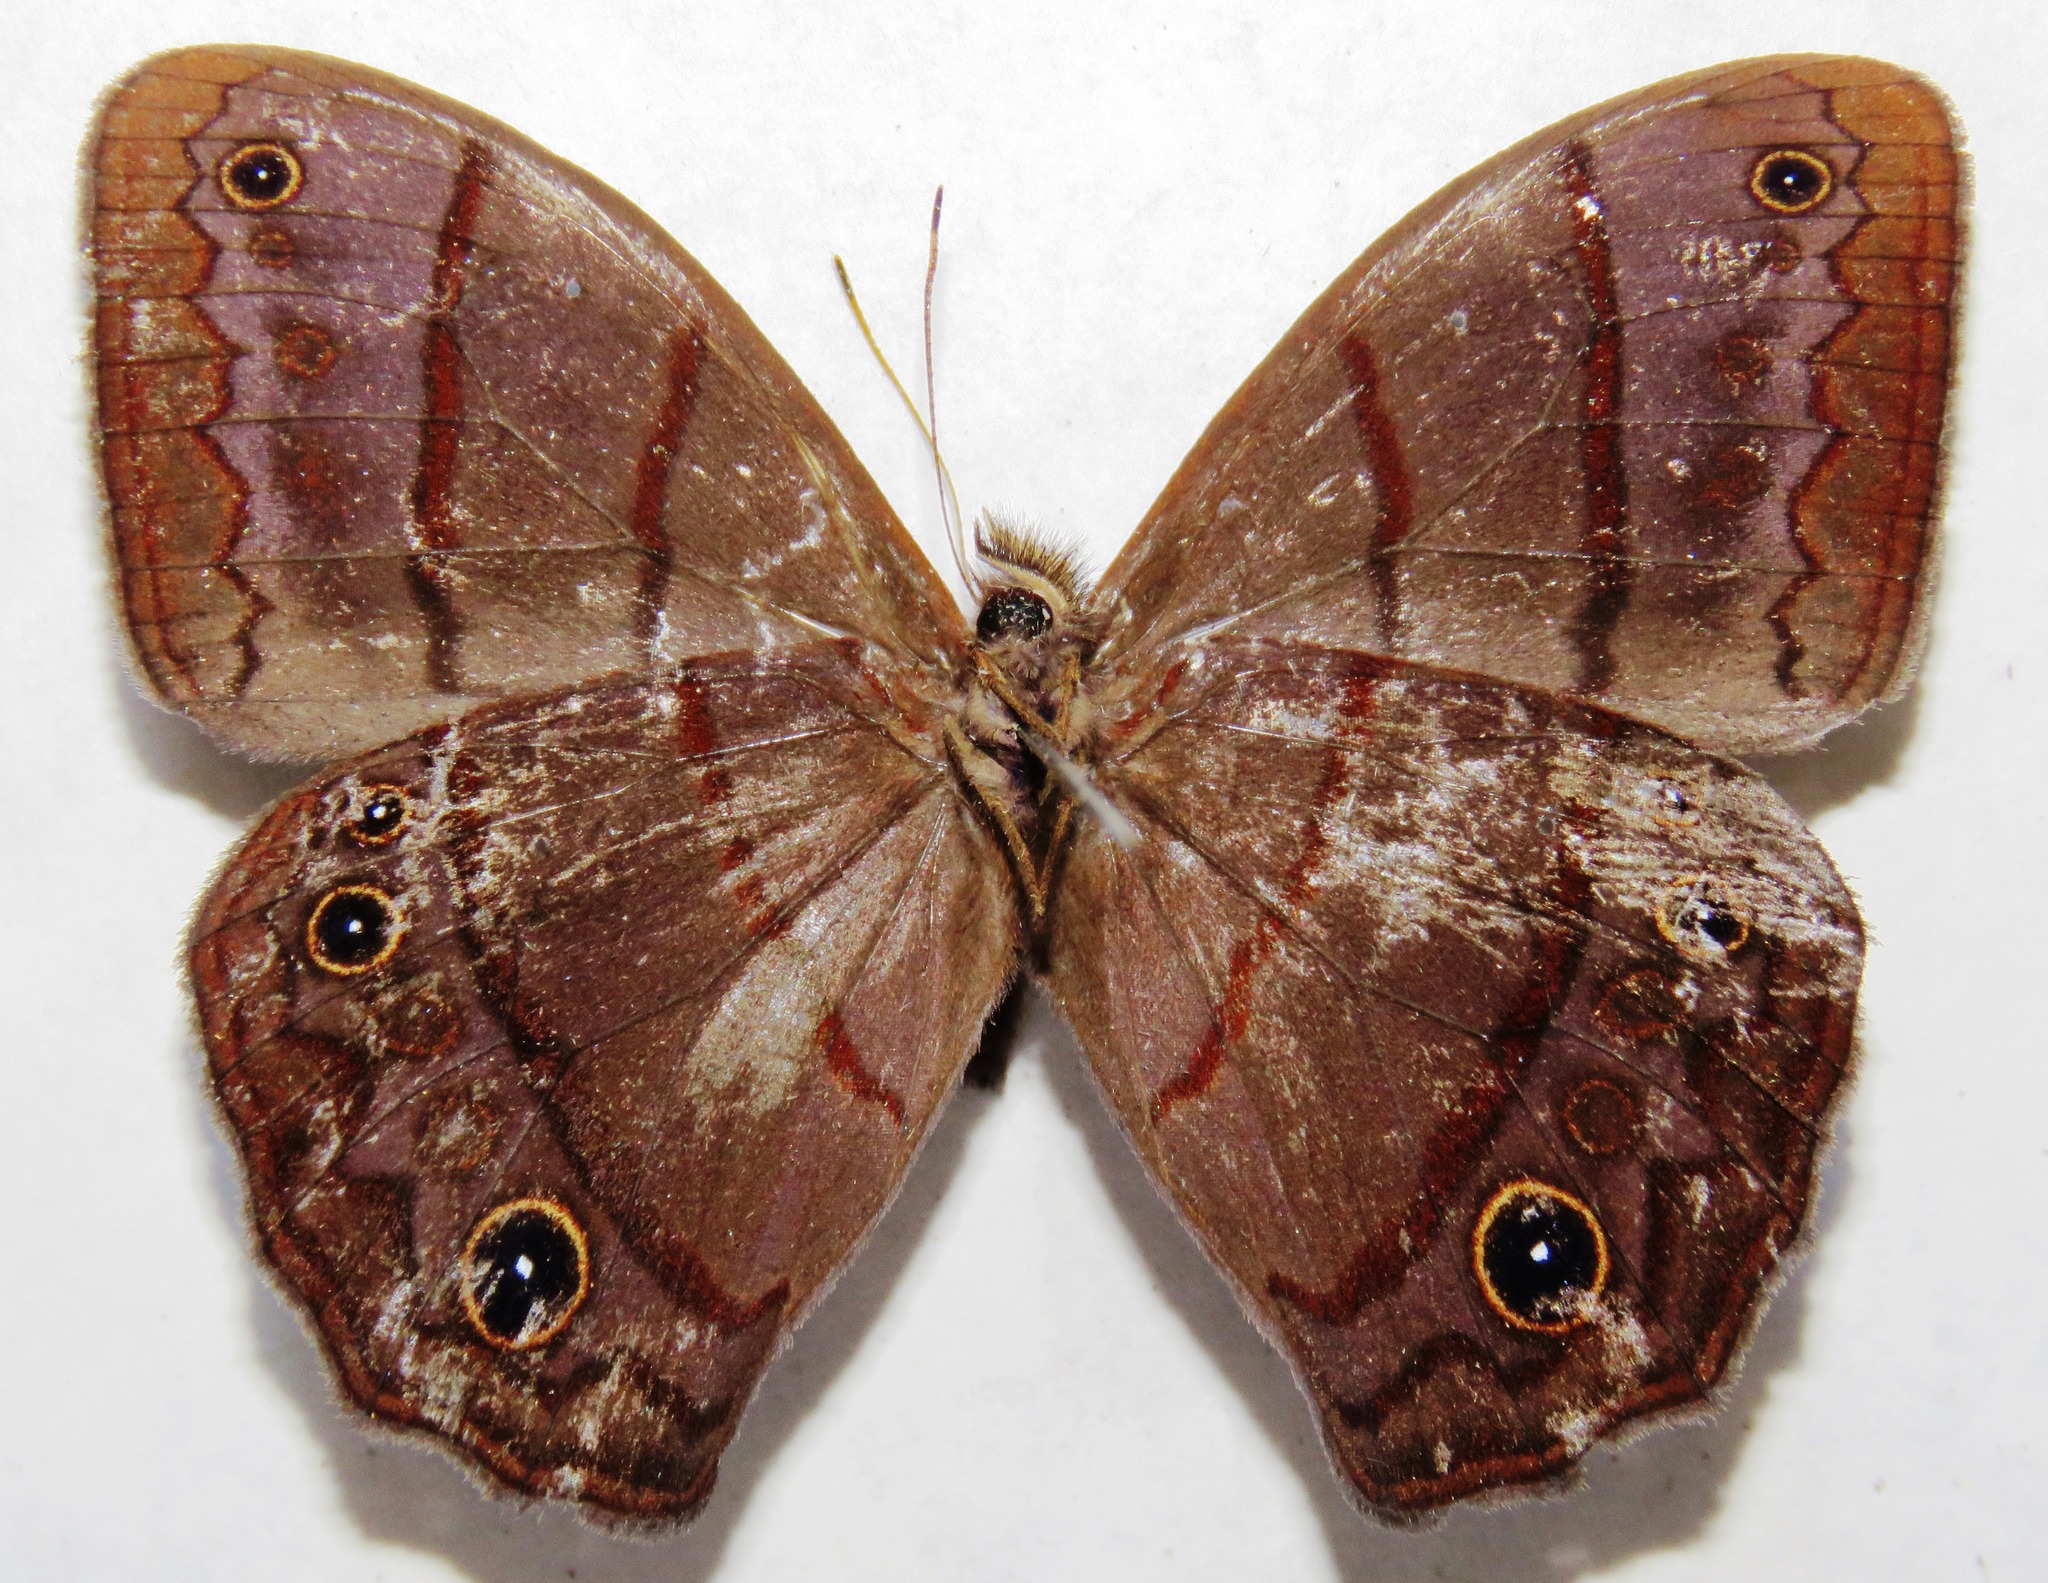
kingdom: Animalia
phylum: Arthropoda
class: Insecta
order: Lepidoptera
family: Nymphalidae
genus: Satyrotaygetis
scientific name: Satyrotaygetis satyrina
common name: Wide-bordered satyr
